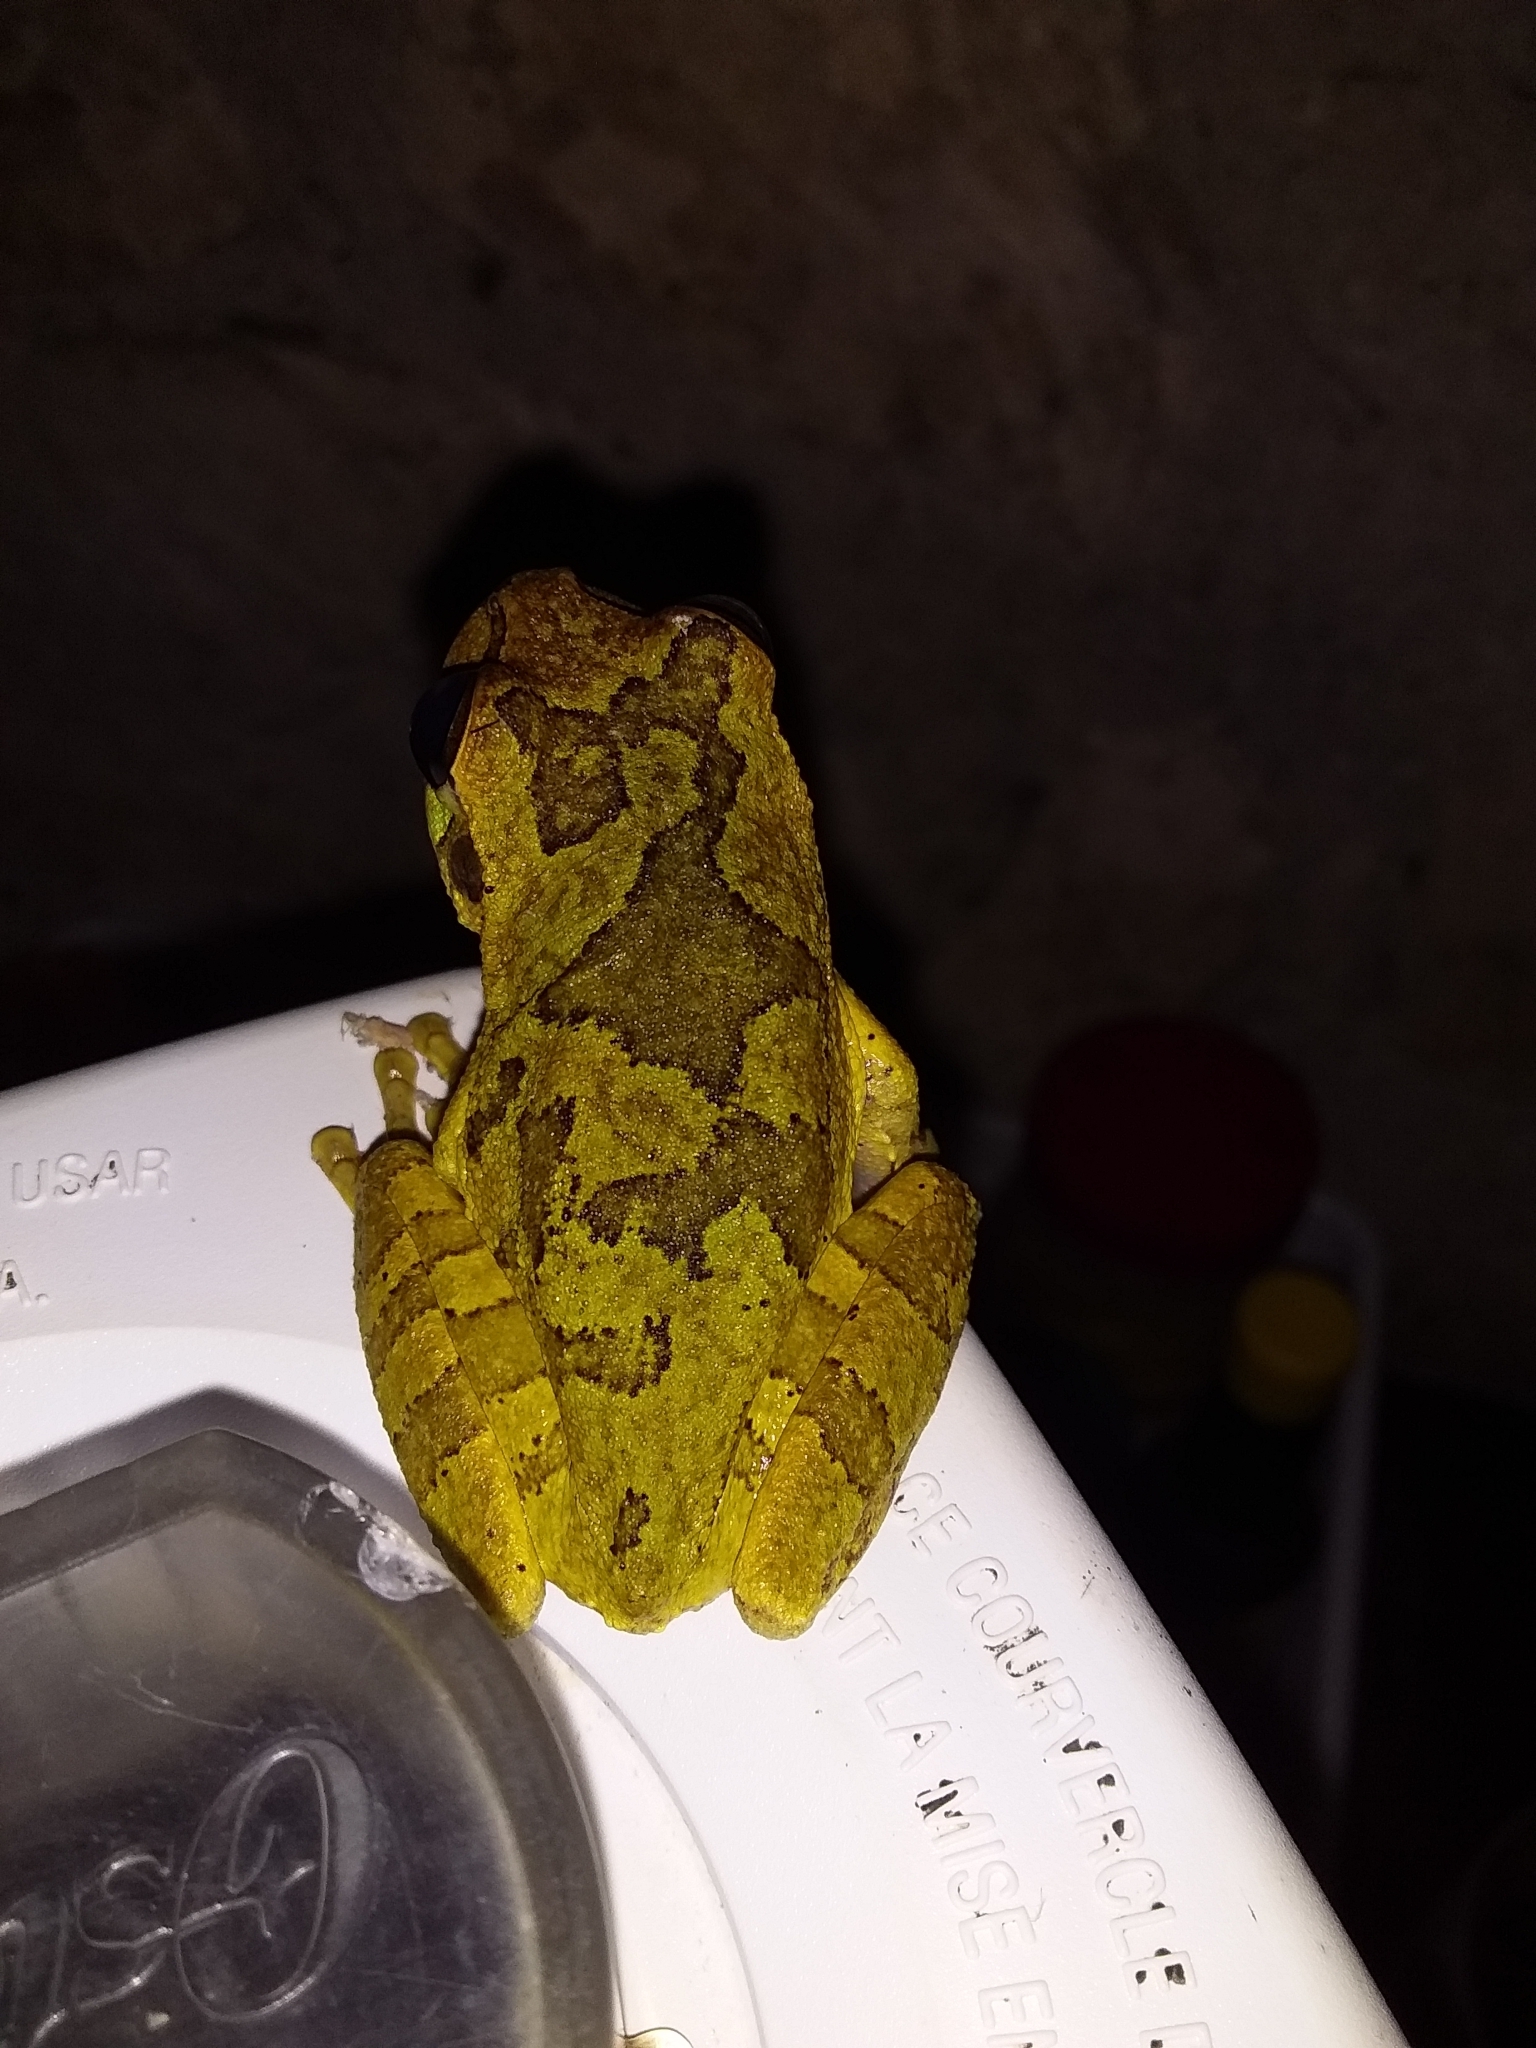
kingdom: Animalia
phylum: Chordata
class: Amphibia
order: Anura
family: Hylidae
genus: Smilisca
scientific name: Smilisca baudinii
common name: Mexican smilisca
